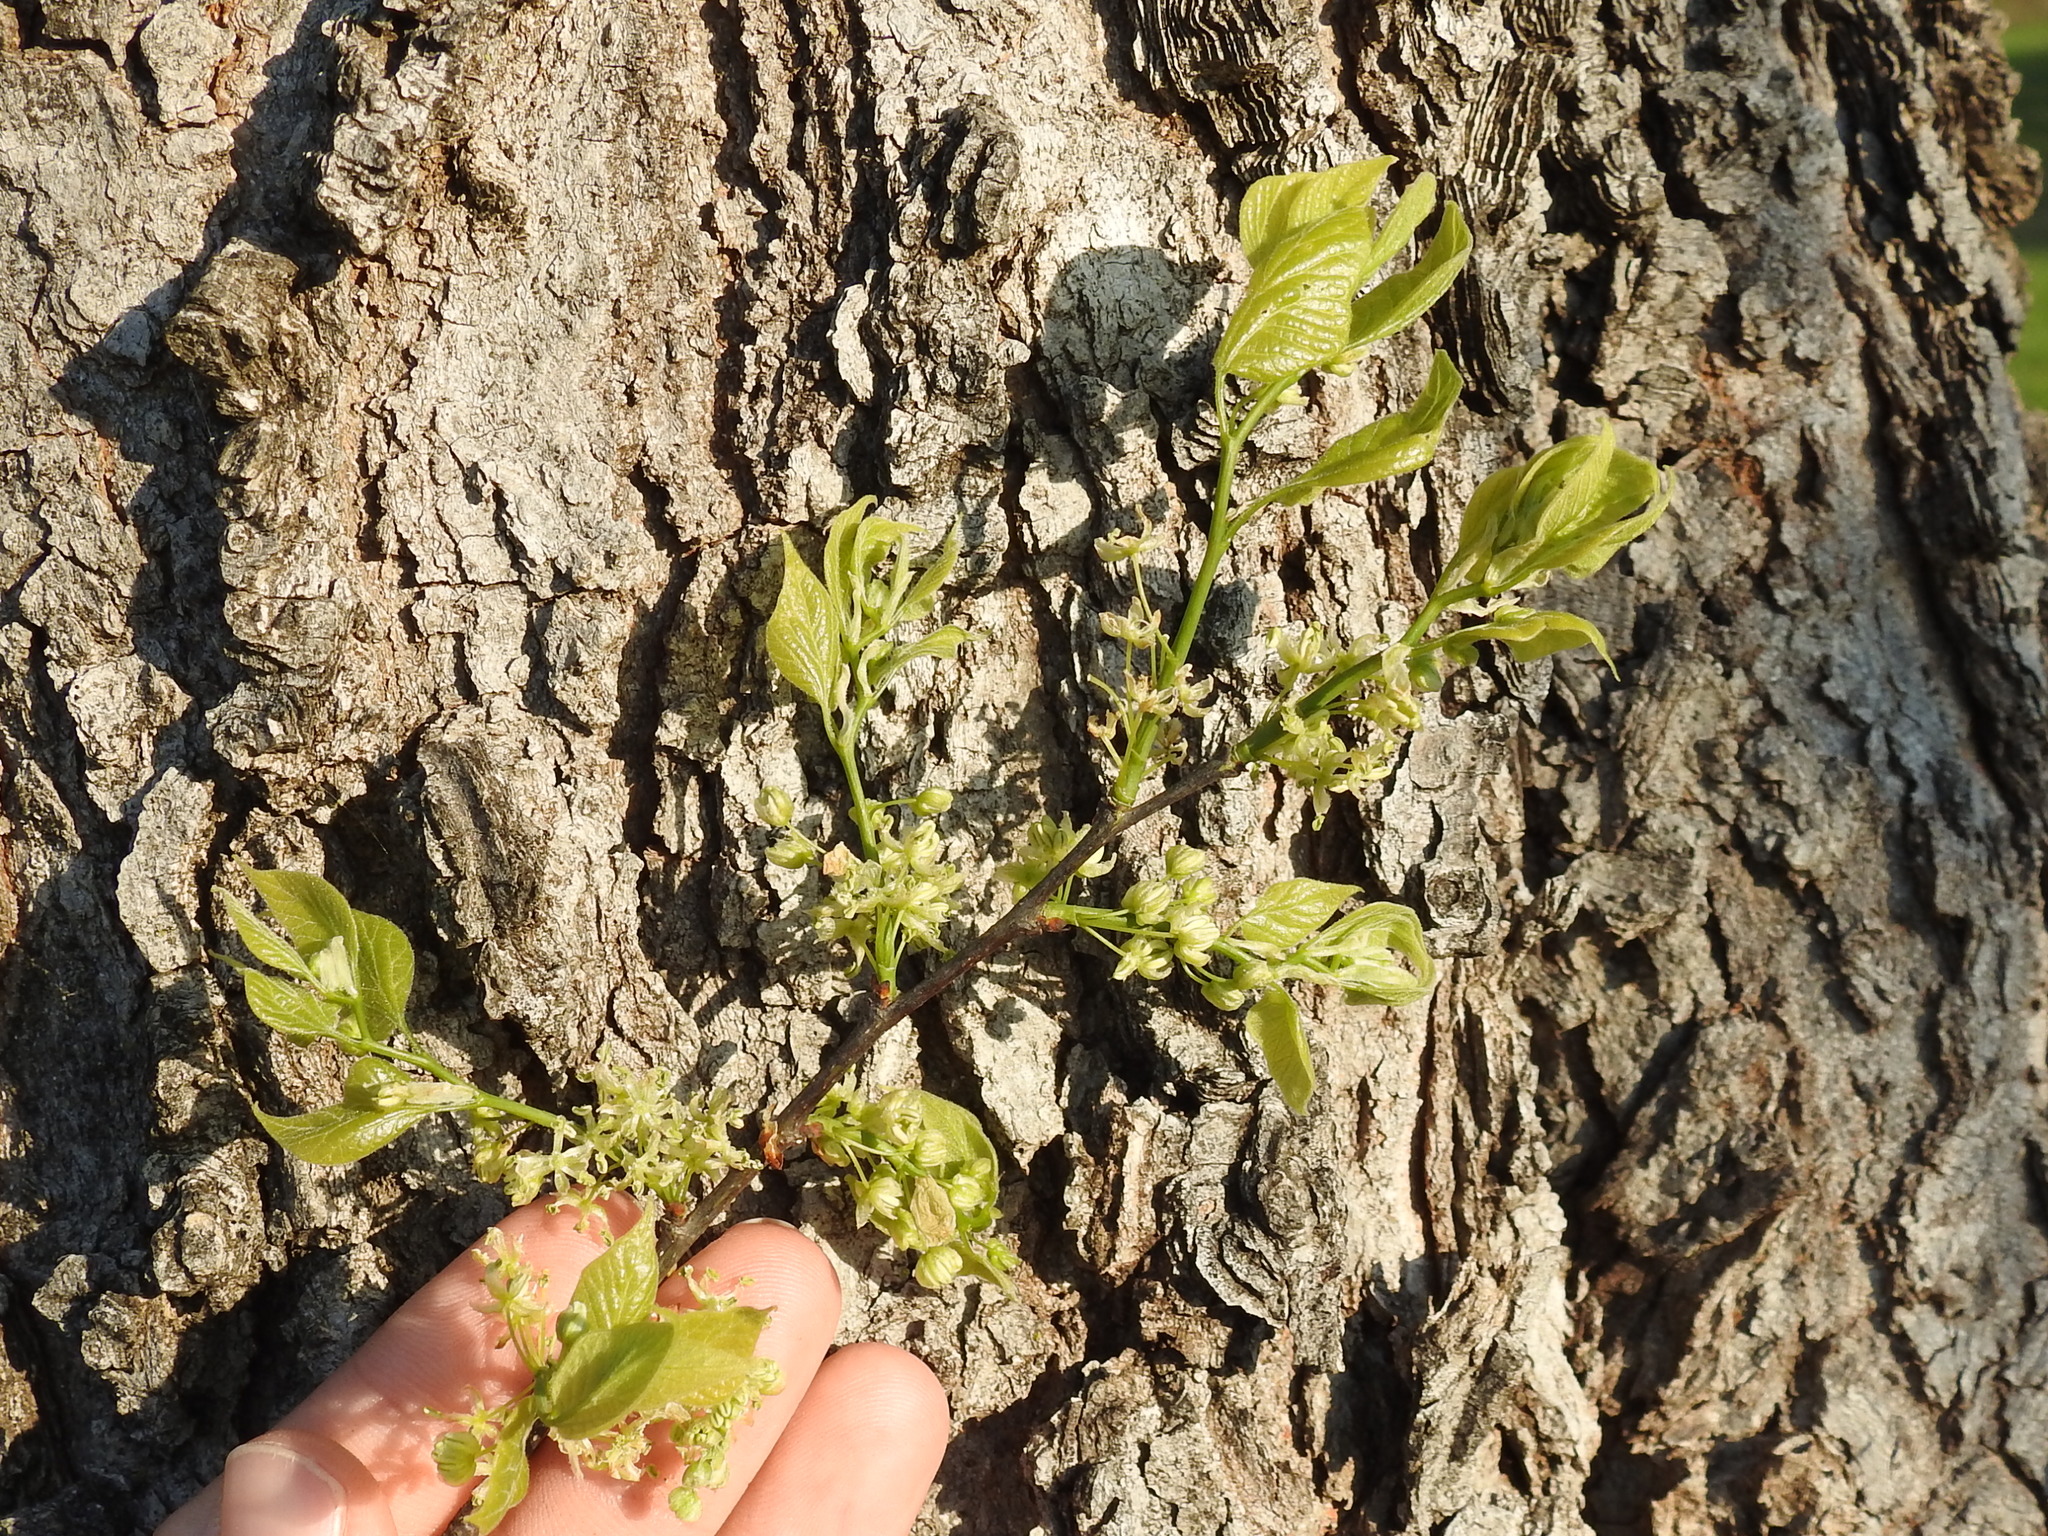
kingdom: Plantae
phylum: Tracheophyta
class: Magnoliopsida
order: Rosales
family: Cannabaceae
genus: Celtis
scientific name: Celtis laevigata
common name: Sugarberry
